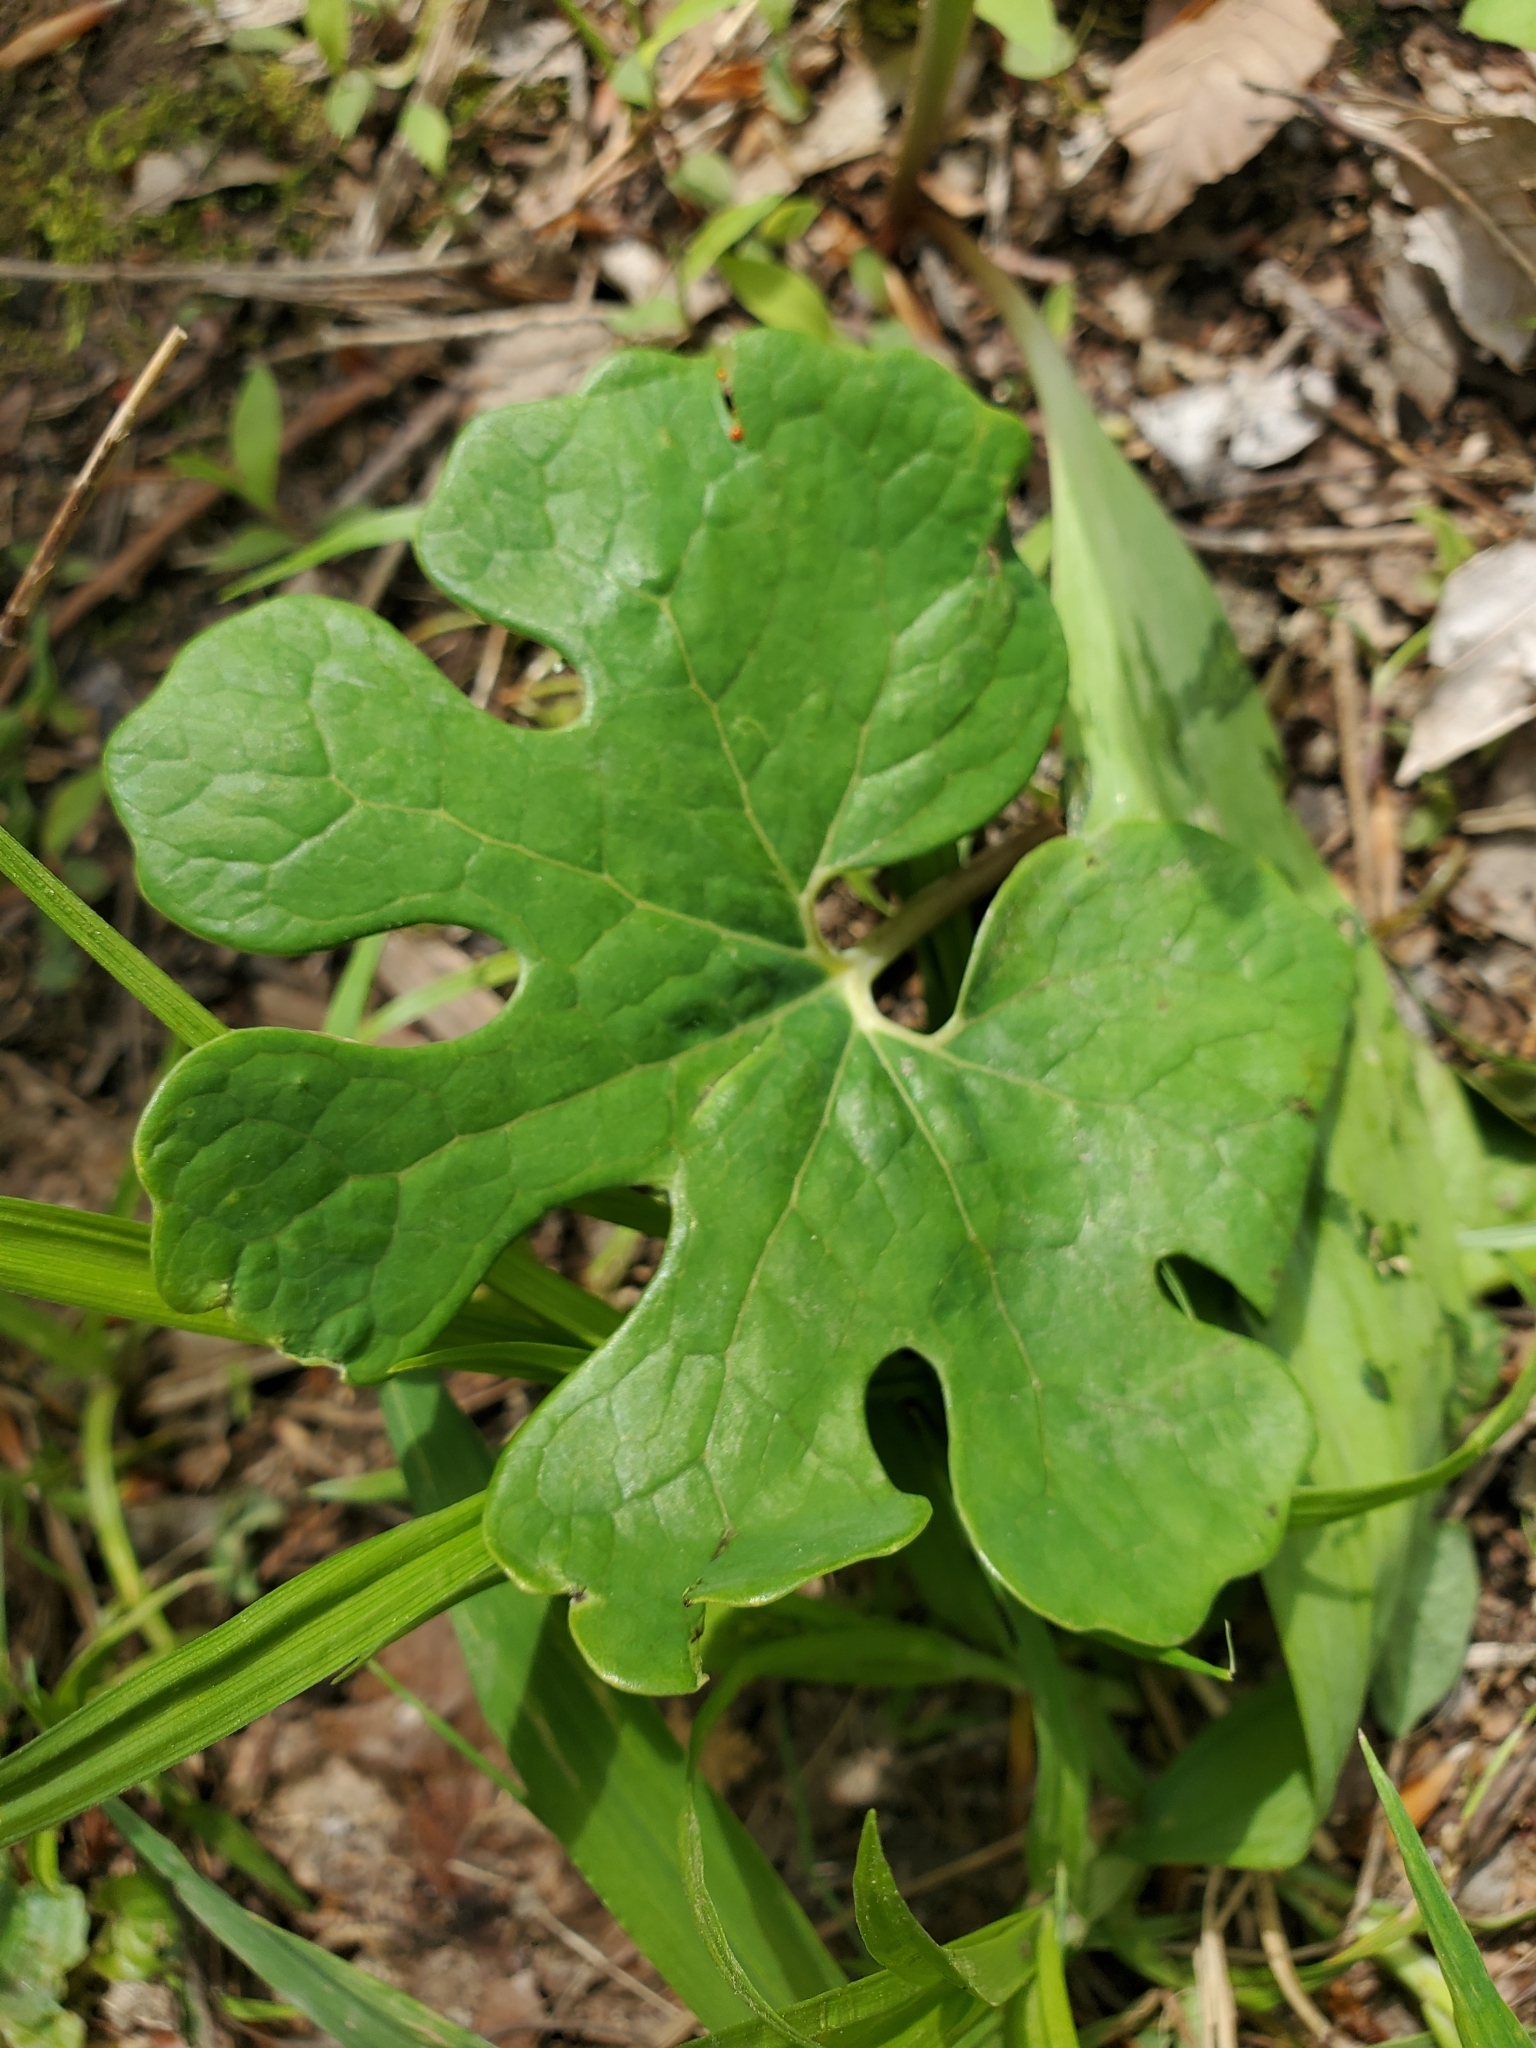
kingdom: Plantae
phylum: Tracheophyta
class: Magnoliopsida
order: Ranunculales
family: Papaveraceae
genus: Sanguinaria
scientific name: Sanguinaria canadensis
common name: Bloodroot
